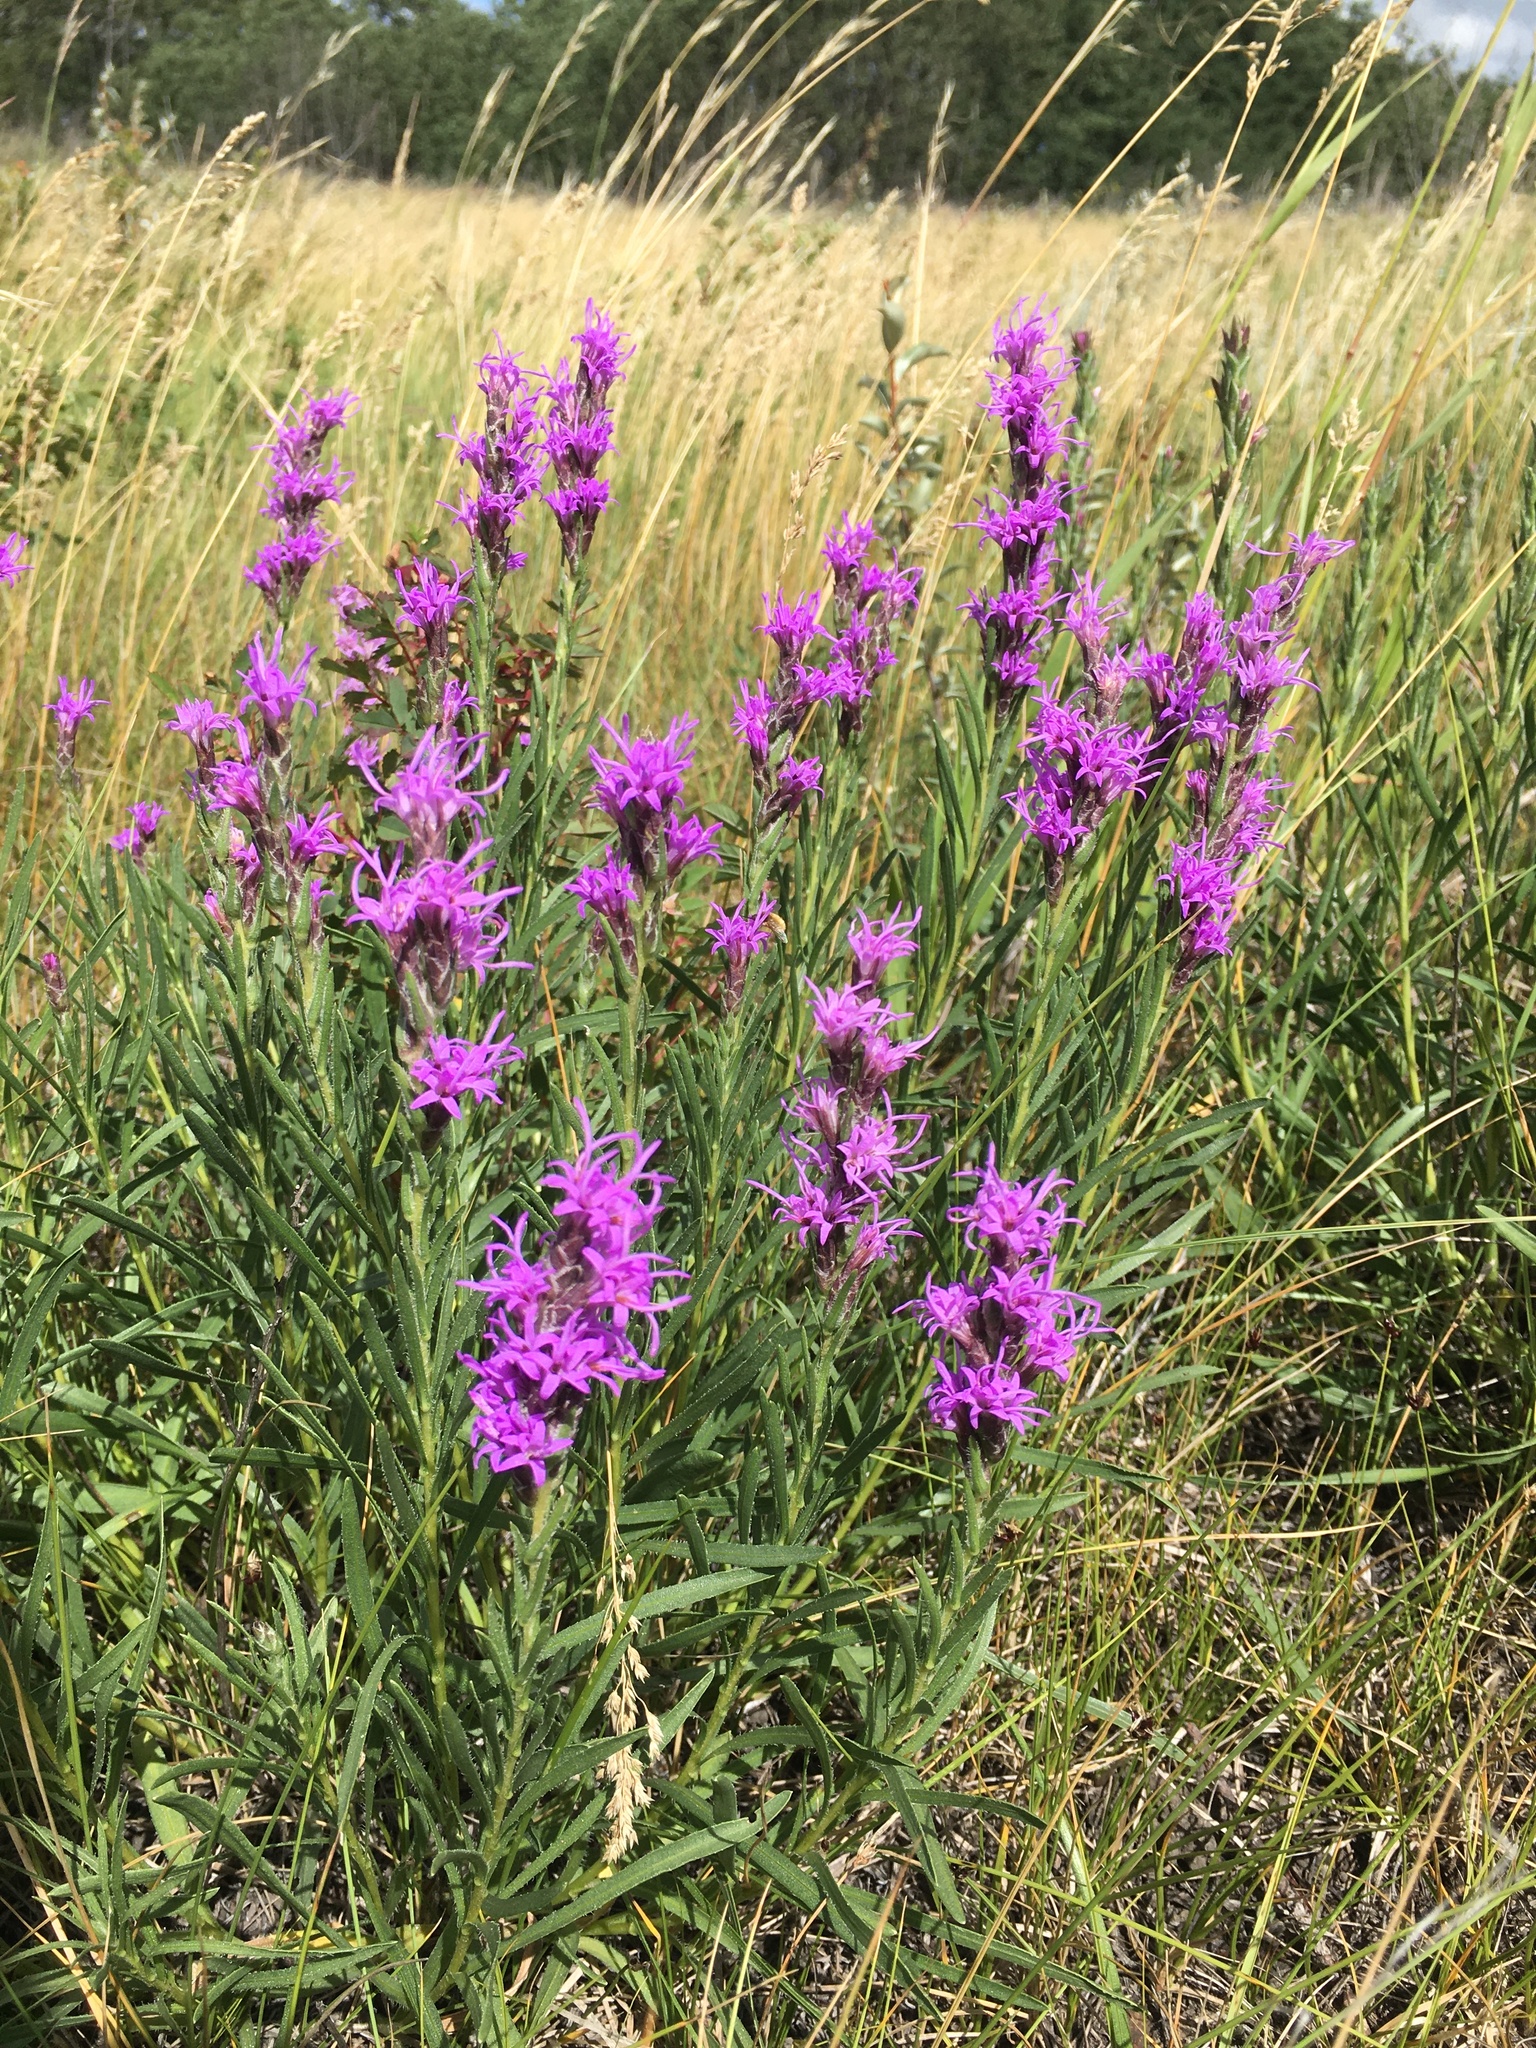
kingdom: Plantae
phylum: Tracheophyta
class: Magnoliopsida
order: Asterales
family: Asteraceae
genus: Liatris
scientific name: Liatris punctata
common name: Dotted gayfeather
